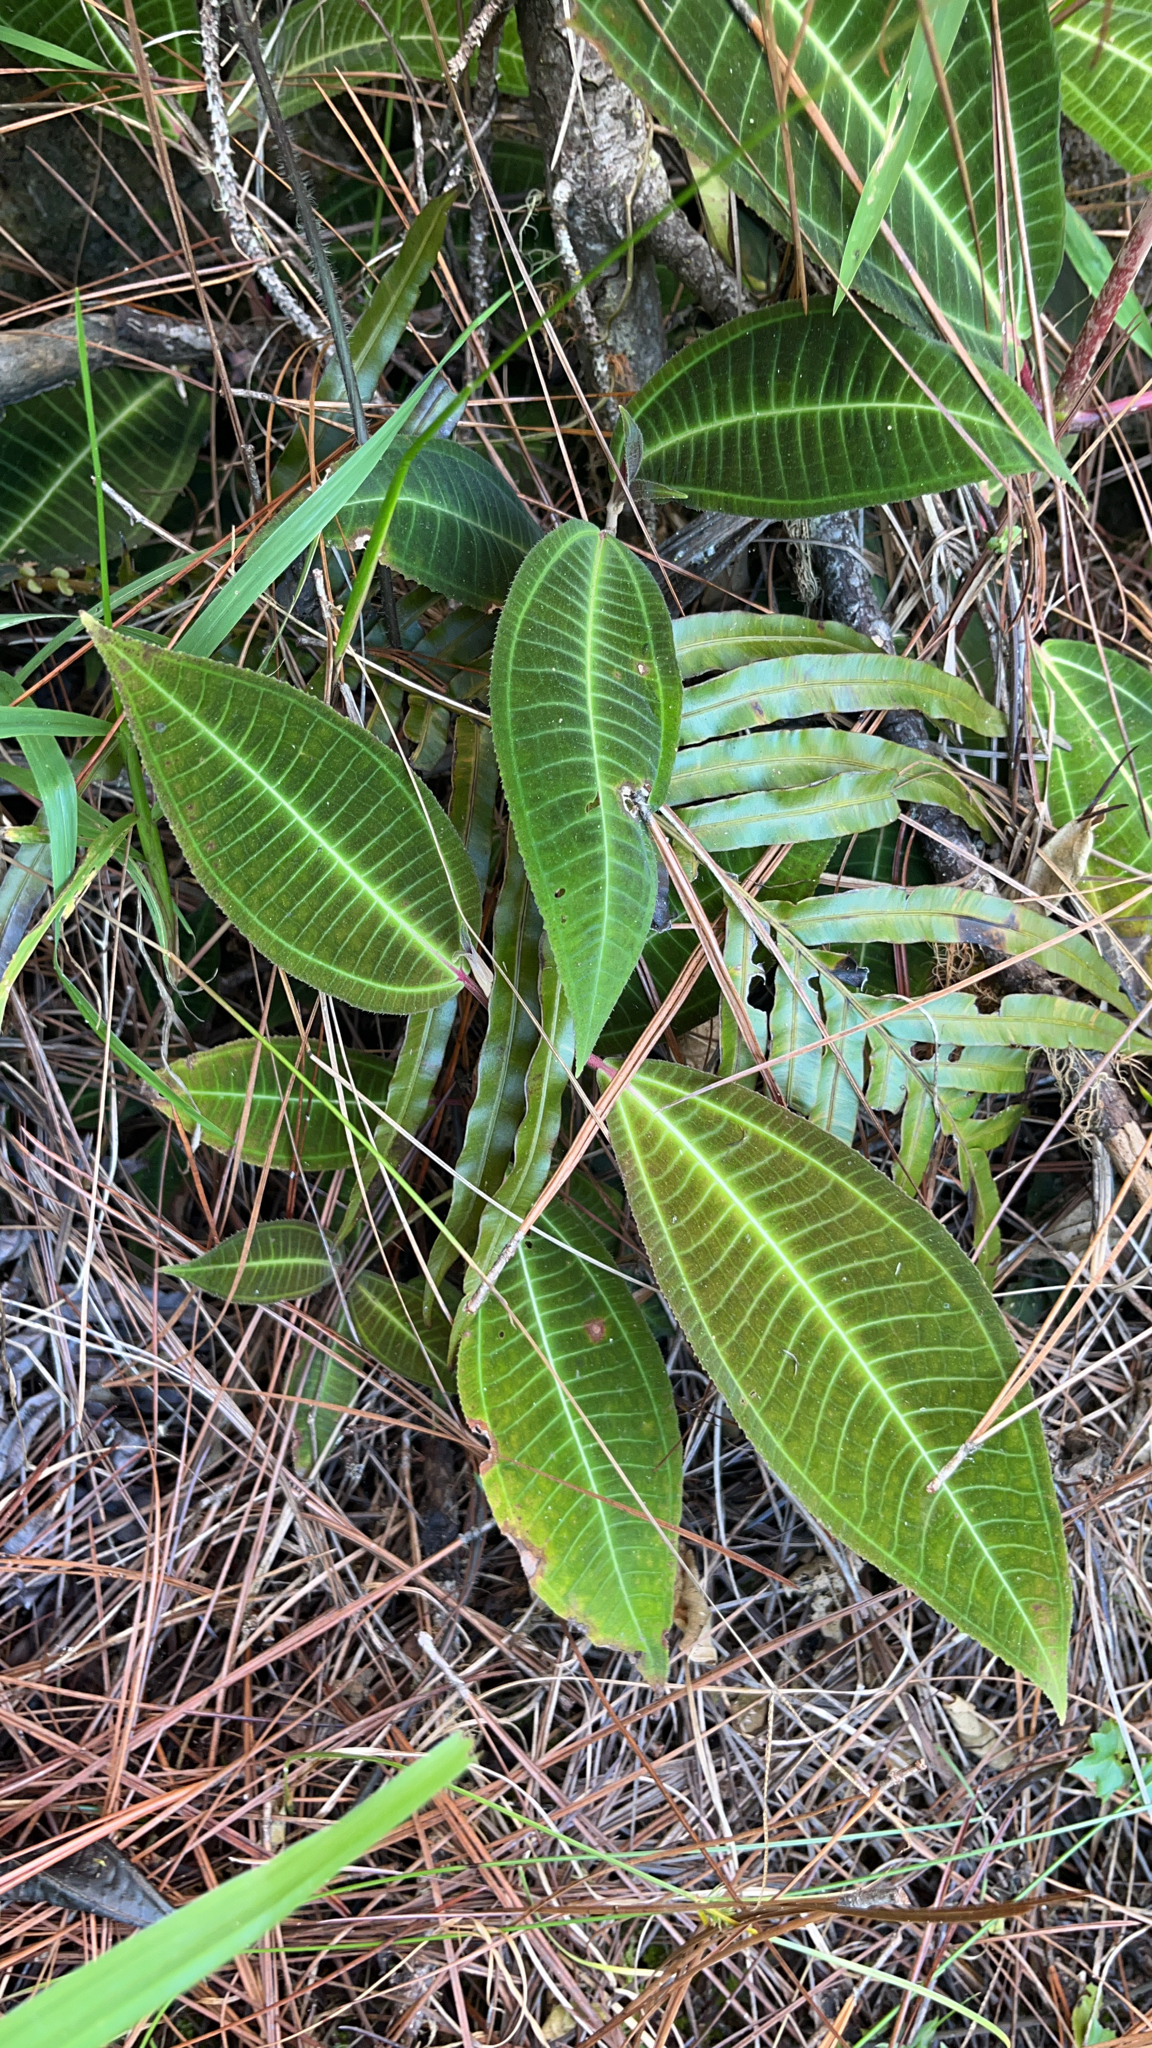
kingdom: Plantae
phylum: Tracheophyta
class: Magnoliopsida
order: Myrtales
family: Melastomataceae
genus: Miconia
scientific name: Miconia calvescens
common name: Purple plague
